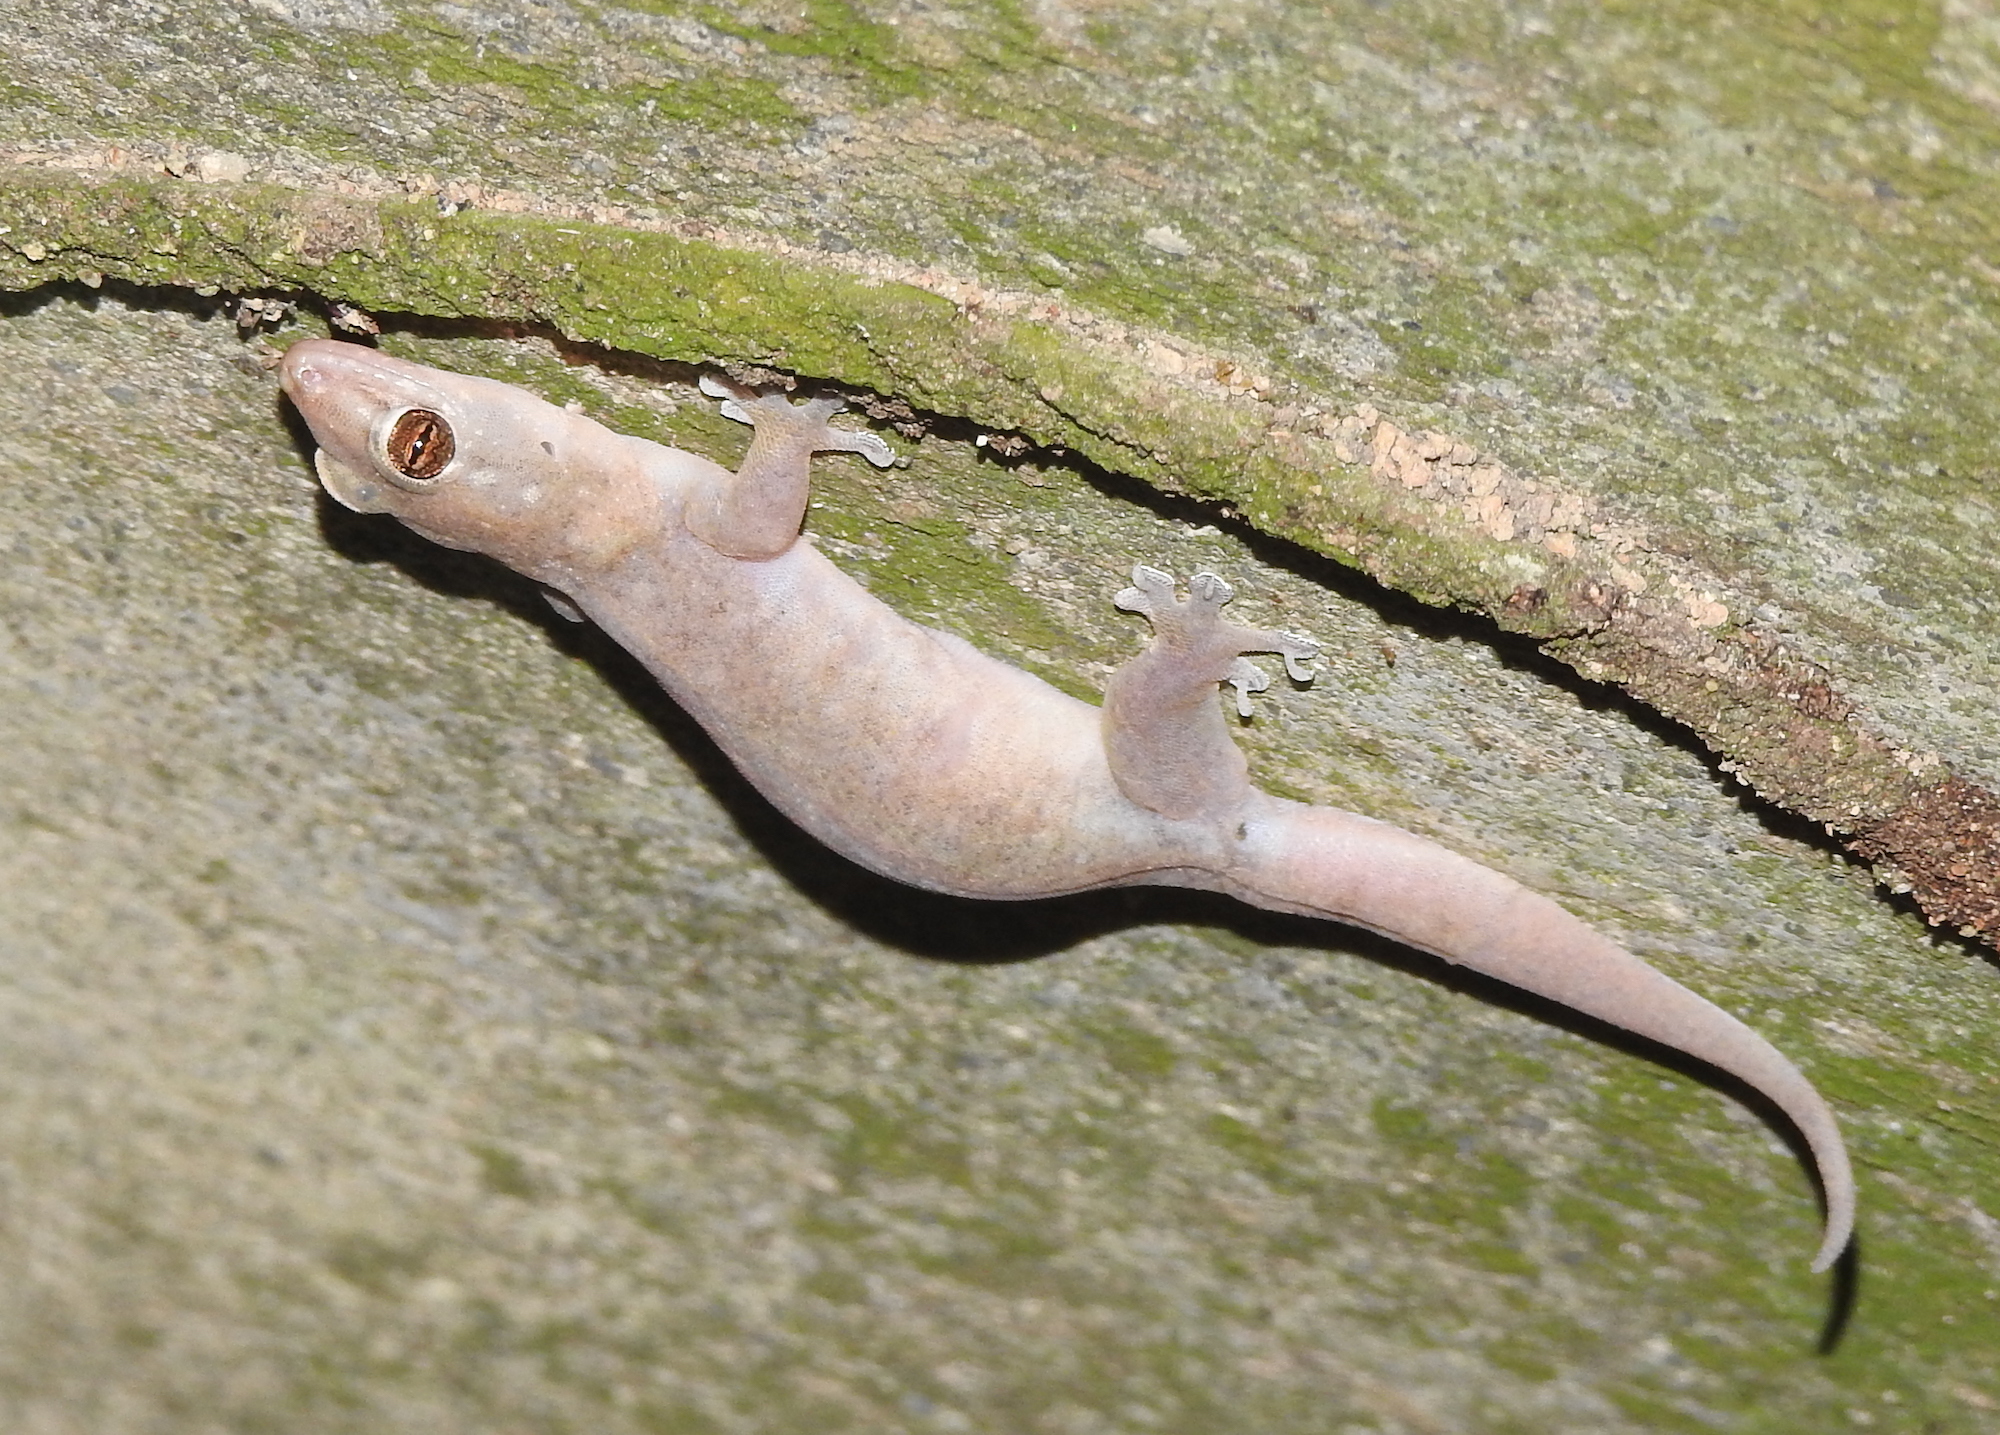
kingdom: Animalia
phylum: Chordata
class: Squamata
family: Gekkonidae
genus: Gehyra
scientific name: Gehyra mutilata
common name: Stump-toed gecko
